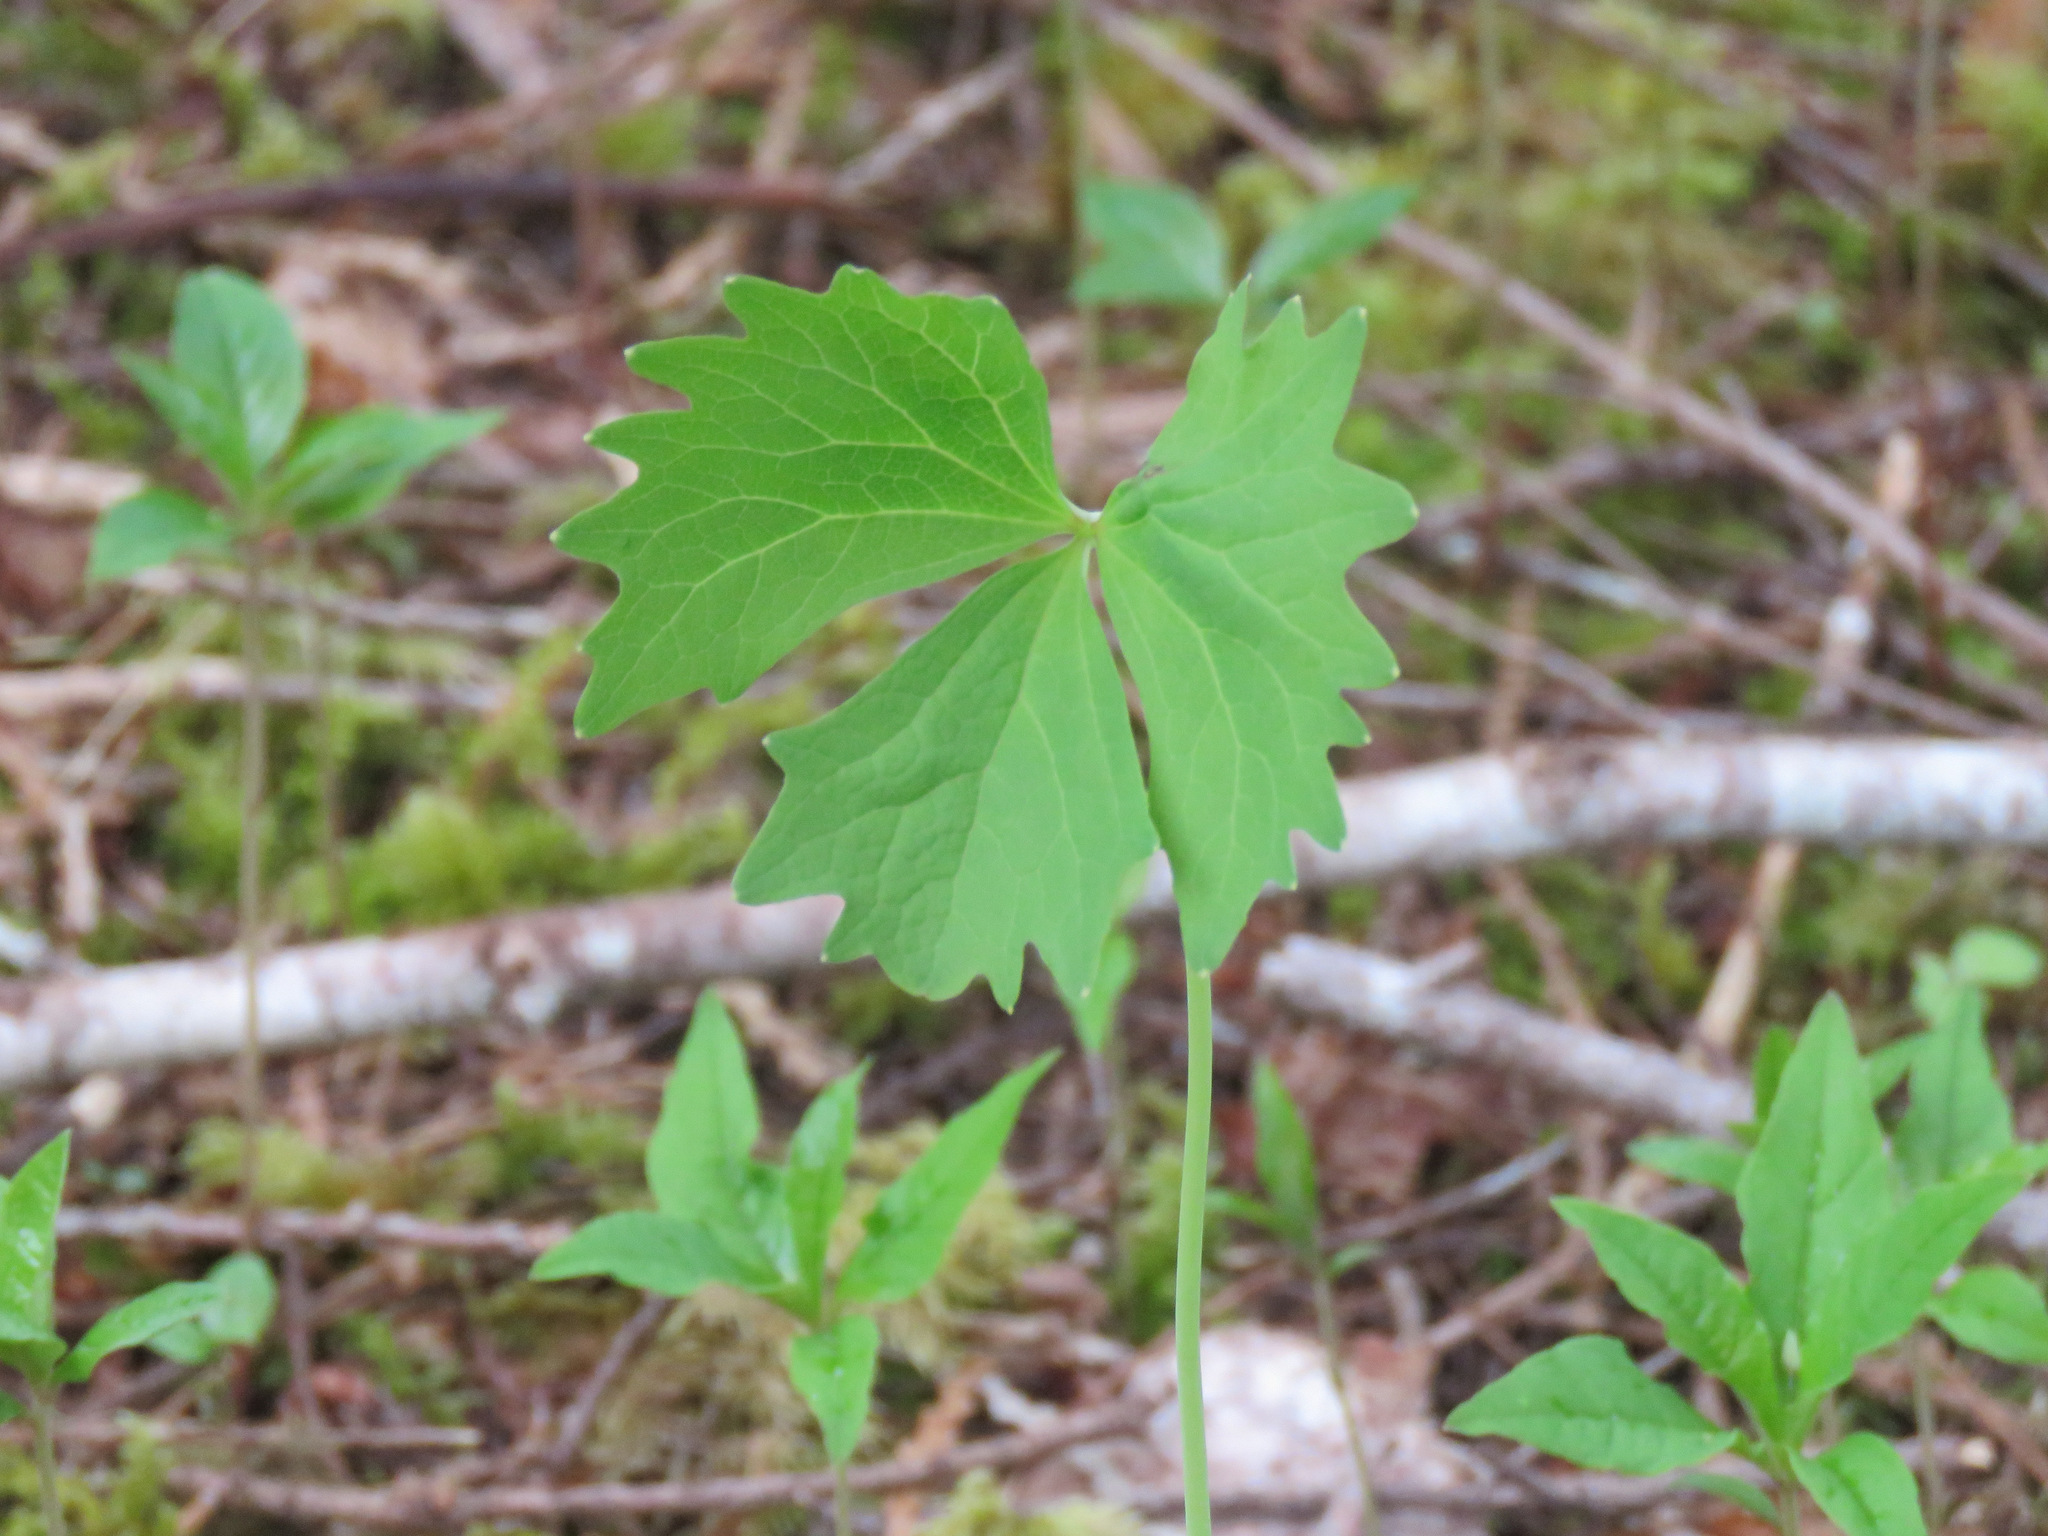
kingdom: Plantae
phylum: Tracheophyta
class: Magnoliopsida
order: Ranunculales
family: Berberidaceae
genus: Achlys
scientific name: Achlys triphylla
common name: Vanilla-leaf
